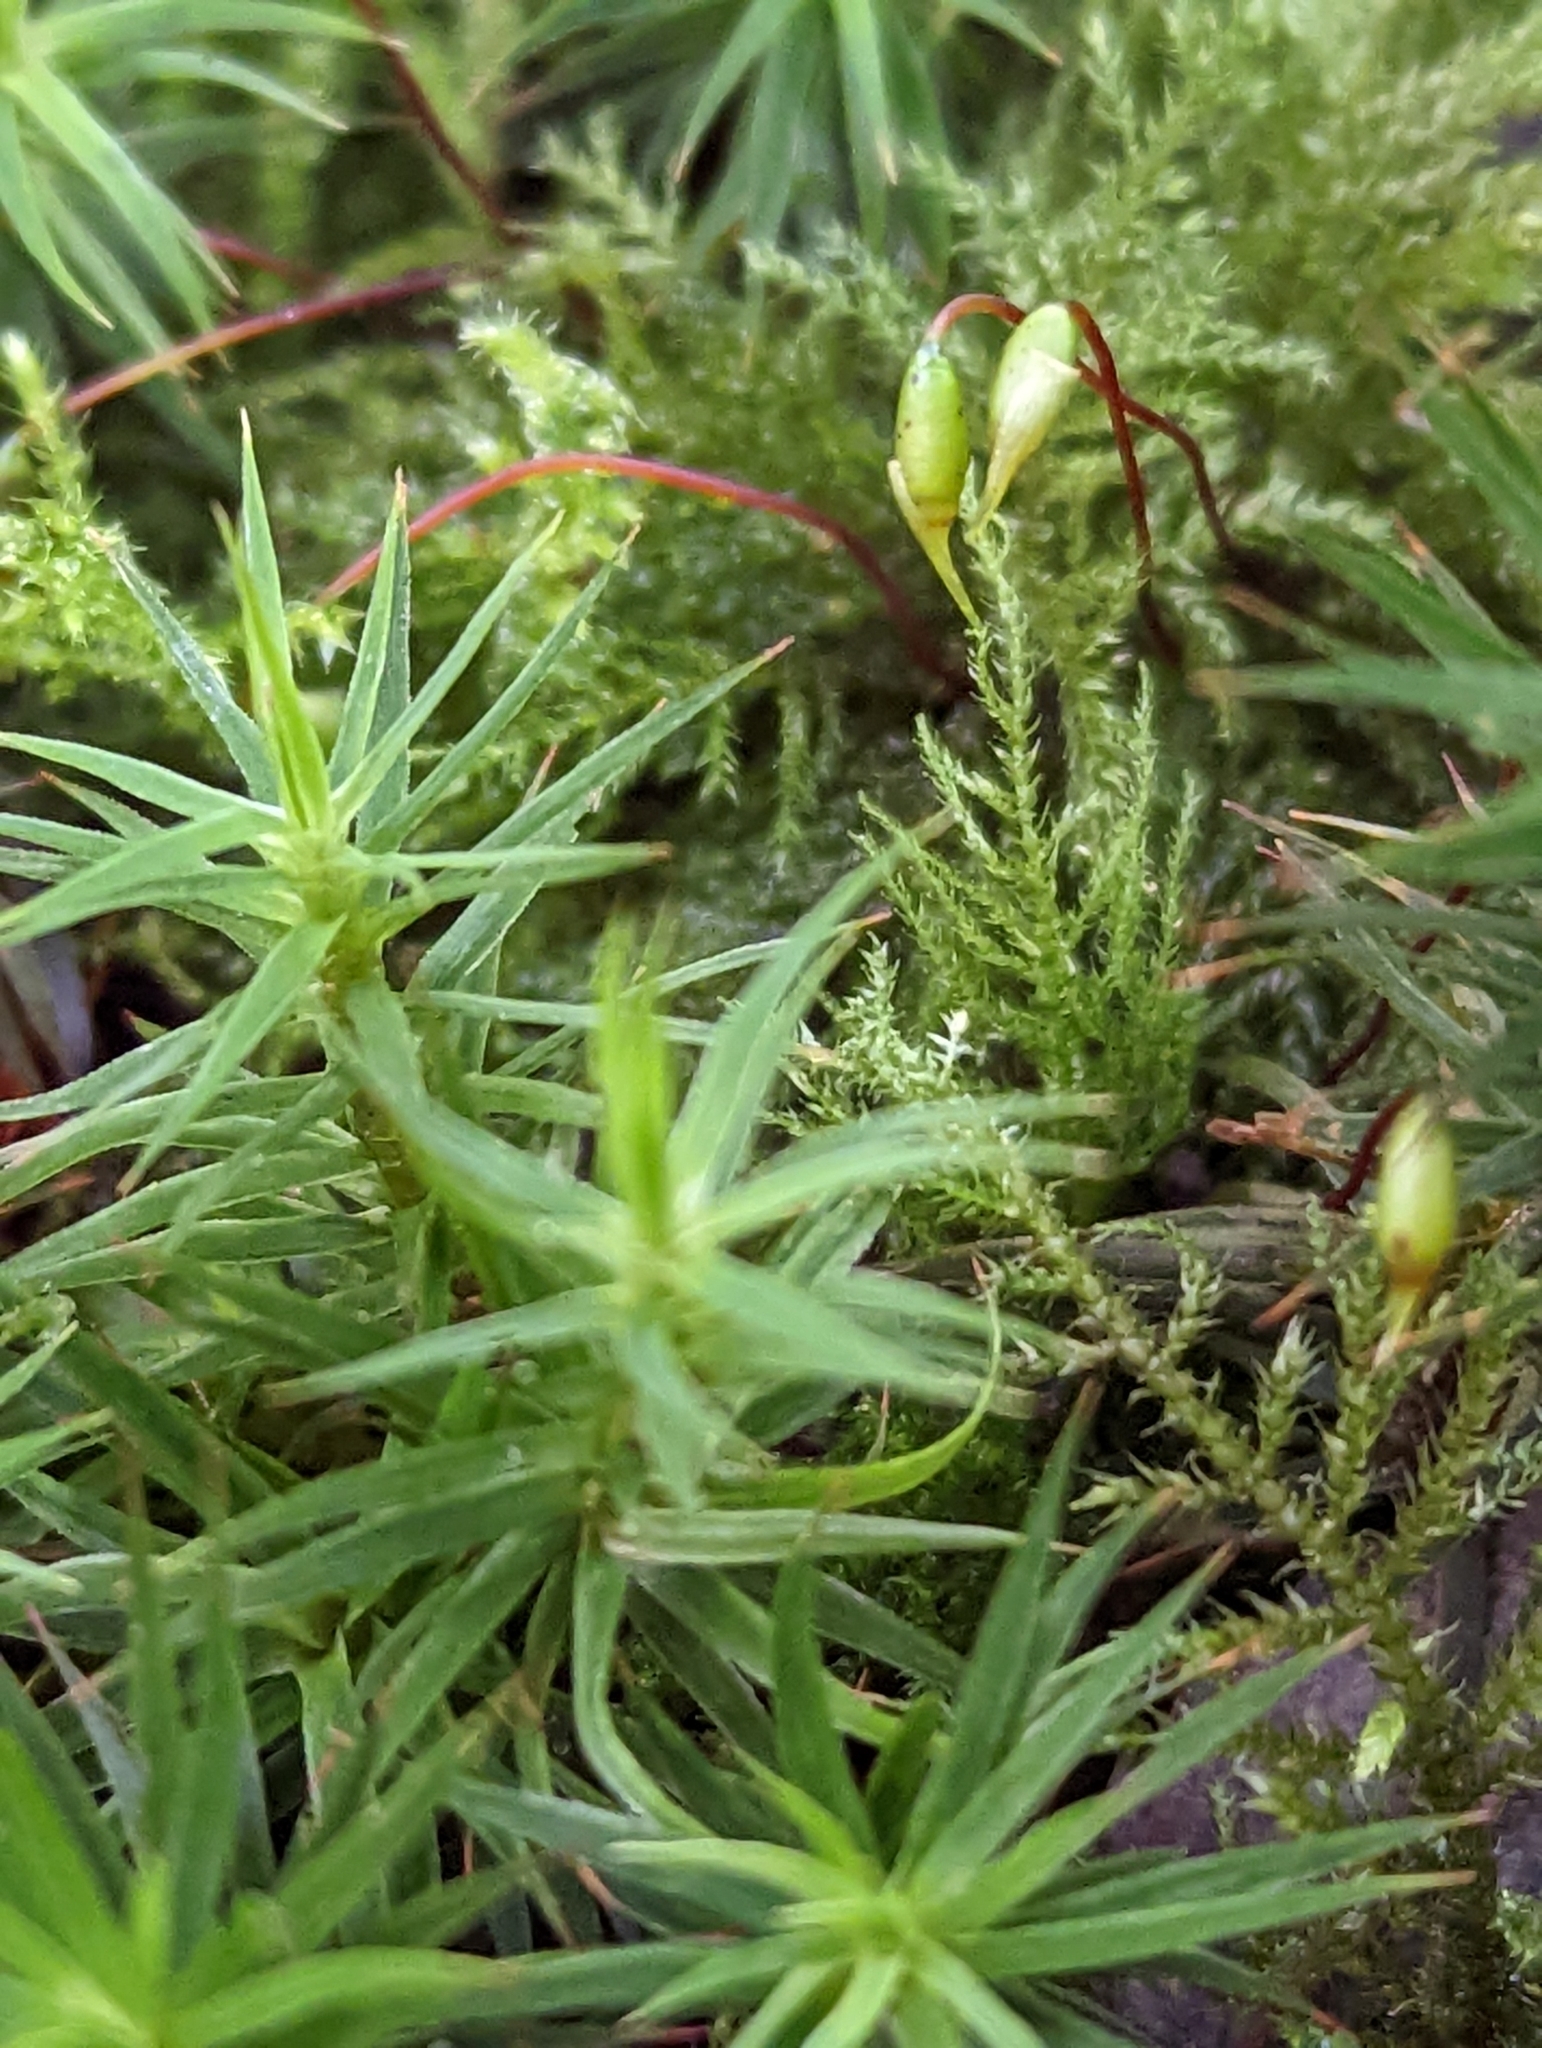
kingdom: Plantae
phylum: Bryophyta
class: Polytrichopsida
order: Polytrichales
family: Polytrichaceae
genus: Polytrichum
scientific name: Polytrichum formosum
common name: Bank haircap moss
